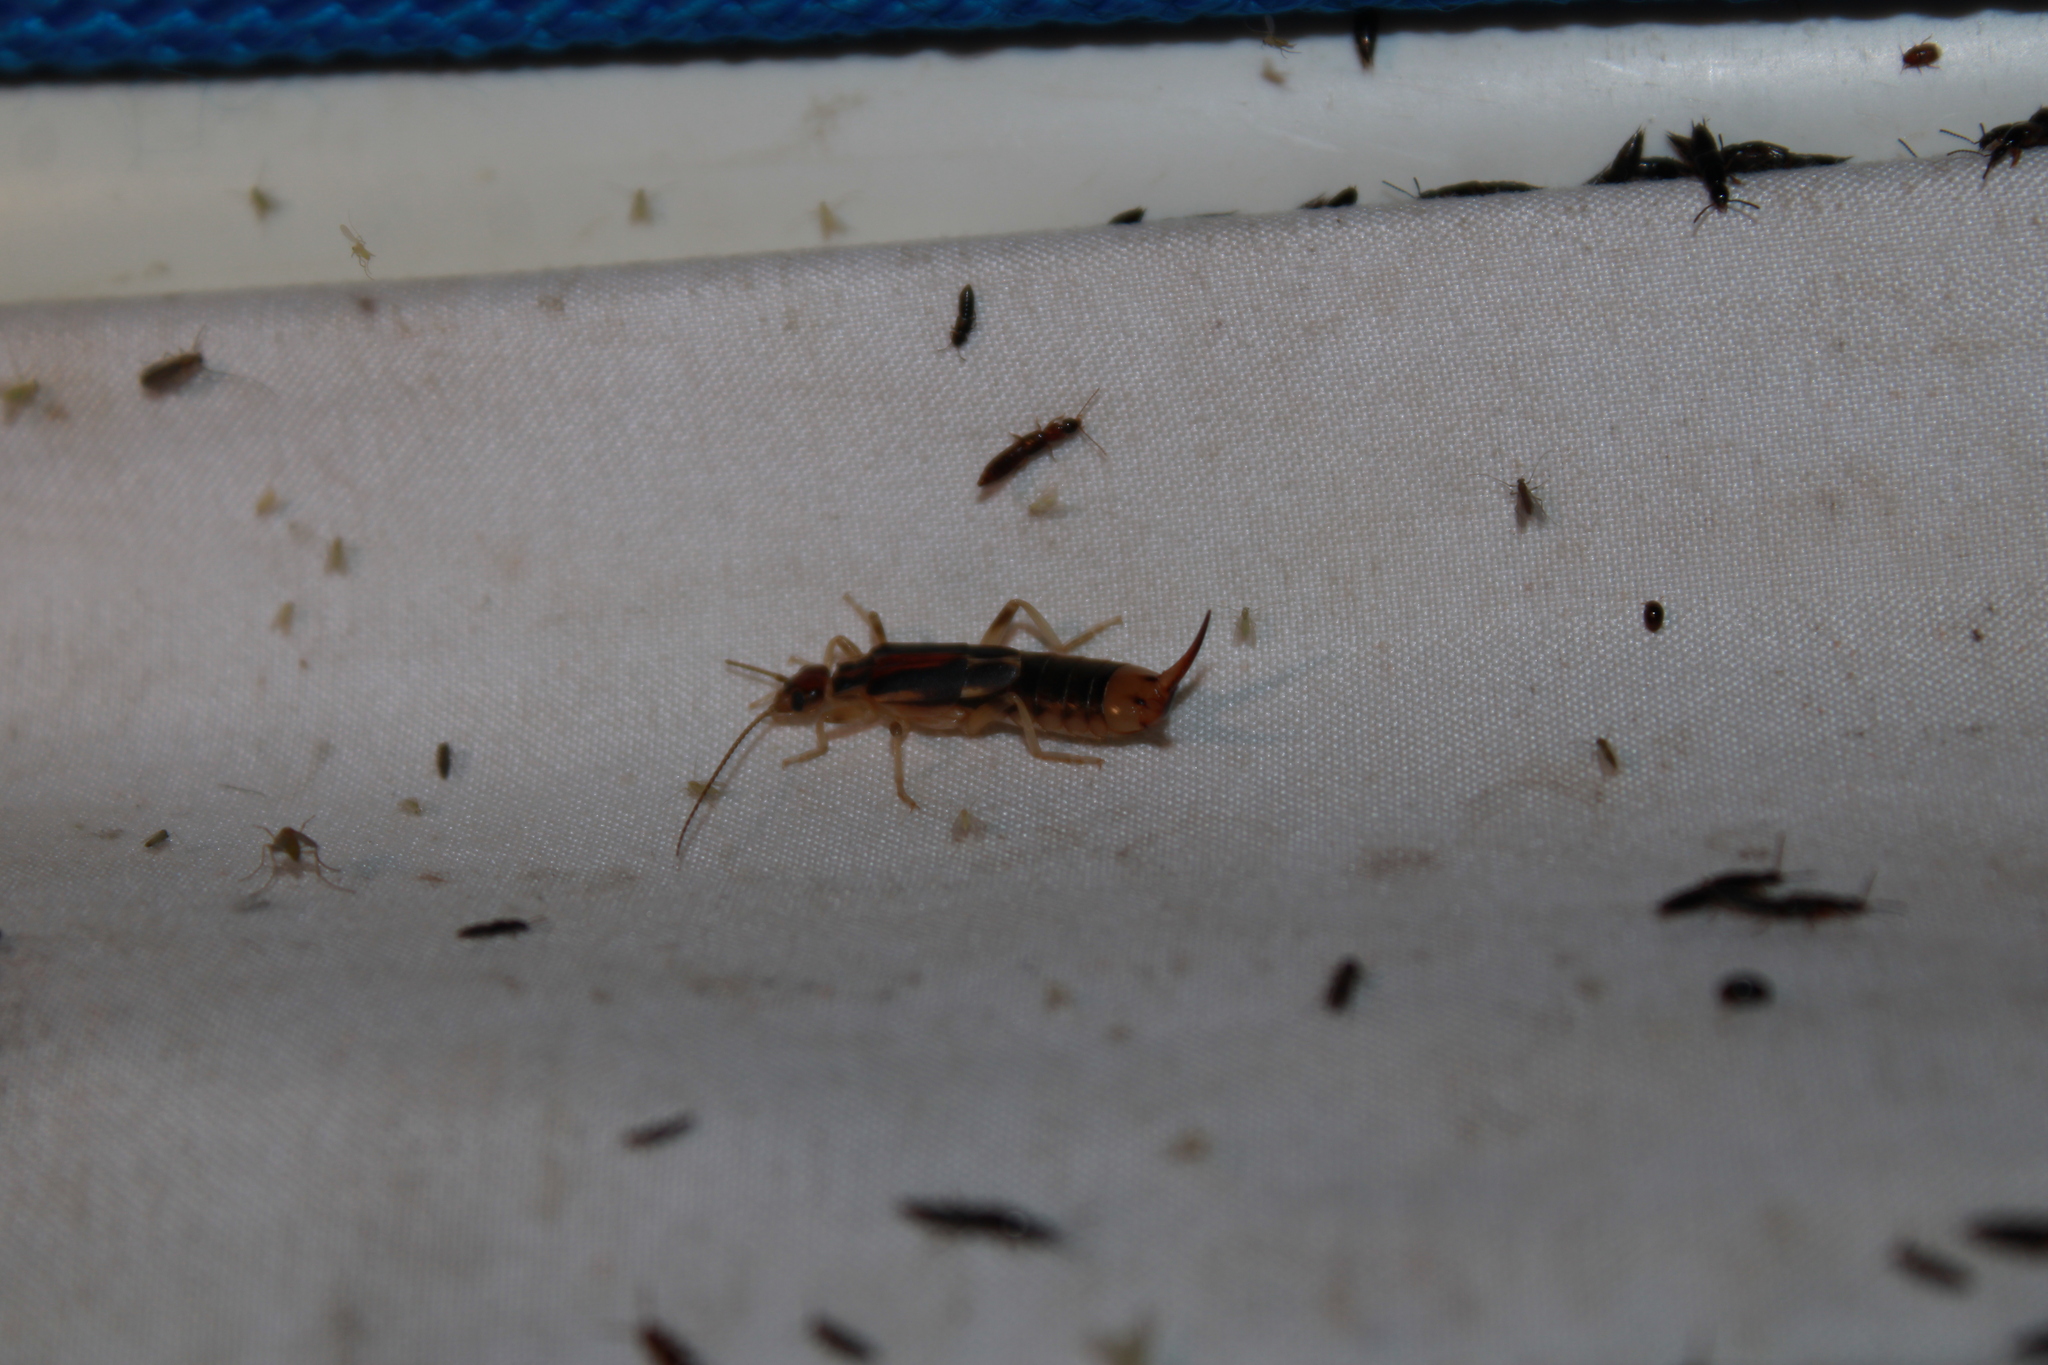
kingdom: Animalia
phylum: Arthropoda
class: Insecta
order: Dermaptera
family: Labiduridae
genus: Labidura
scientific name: Labidura riparia
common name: Striped earwig
